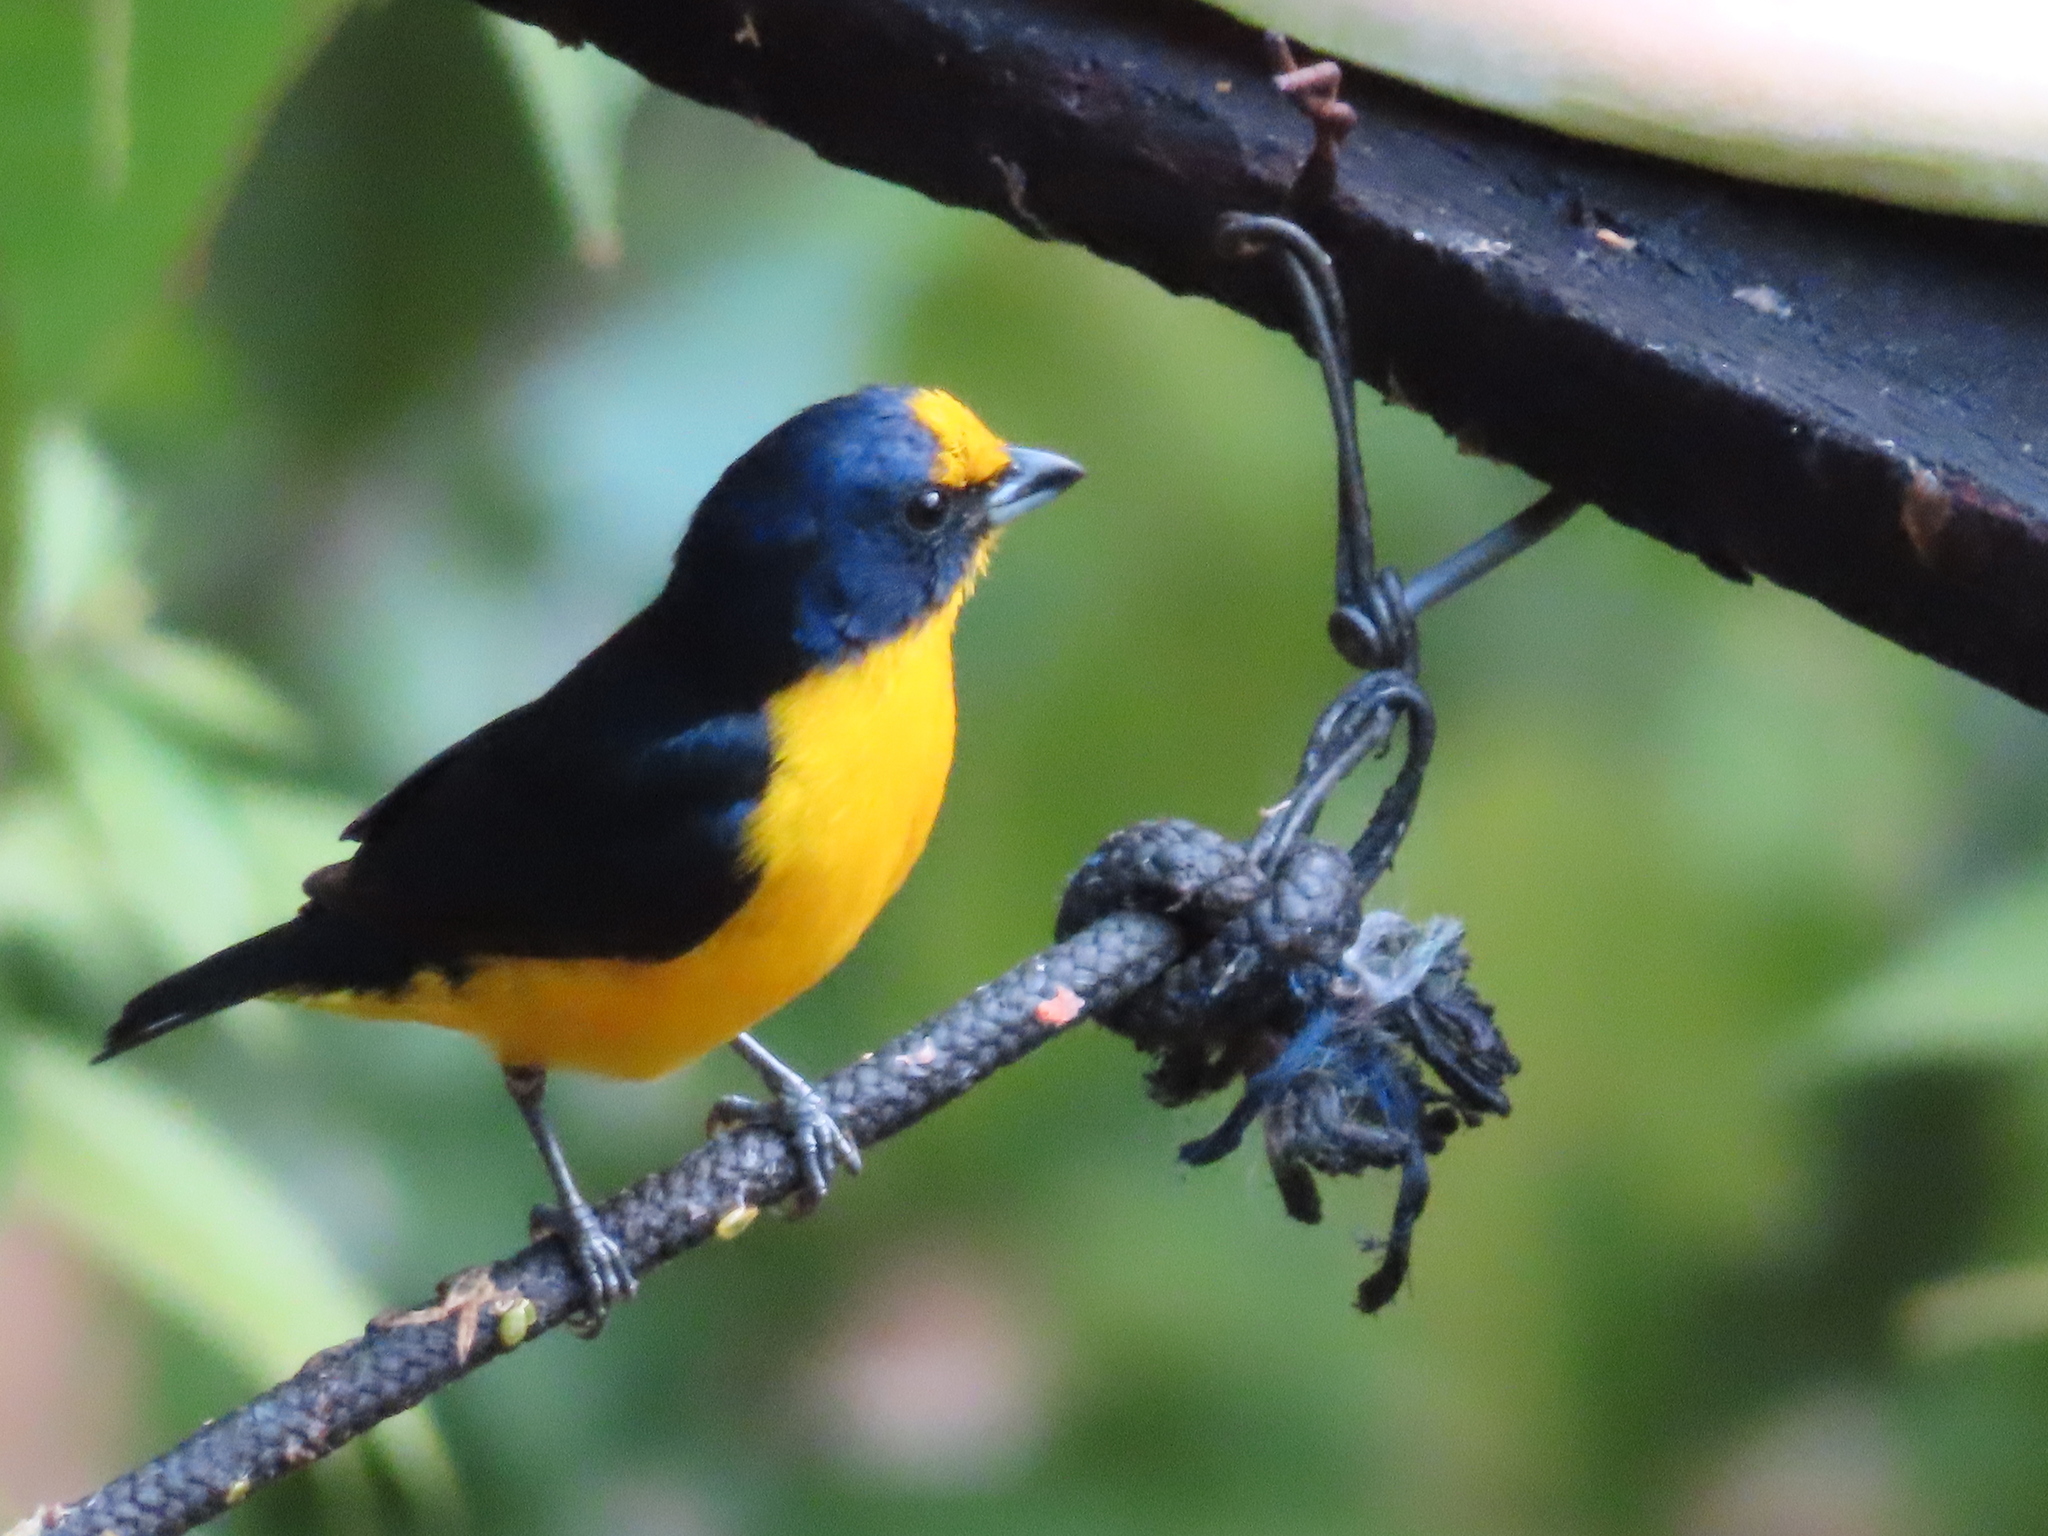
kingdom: Animalia
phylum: Chordata
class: Aves
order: Passeriformes
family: Fringillidae
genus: Euphonia
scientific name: Euphonia hirundinacea
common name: Yellow-throated euphonia
